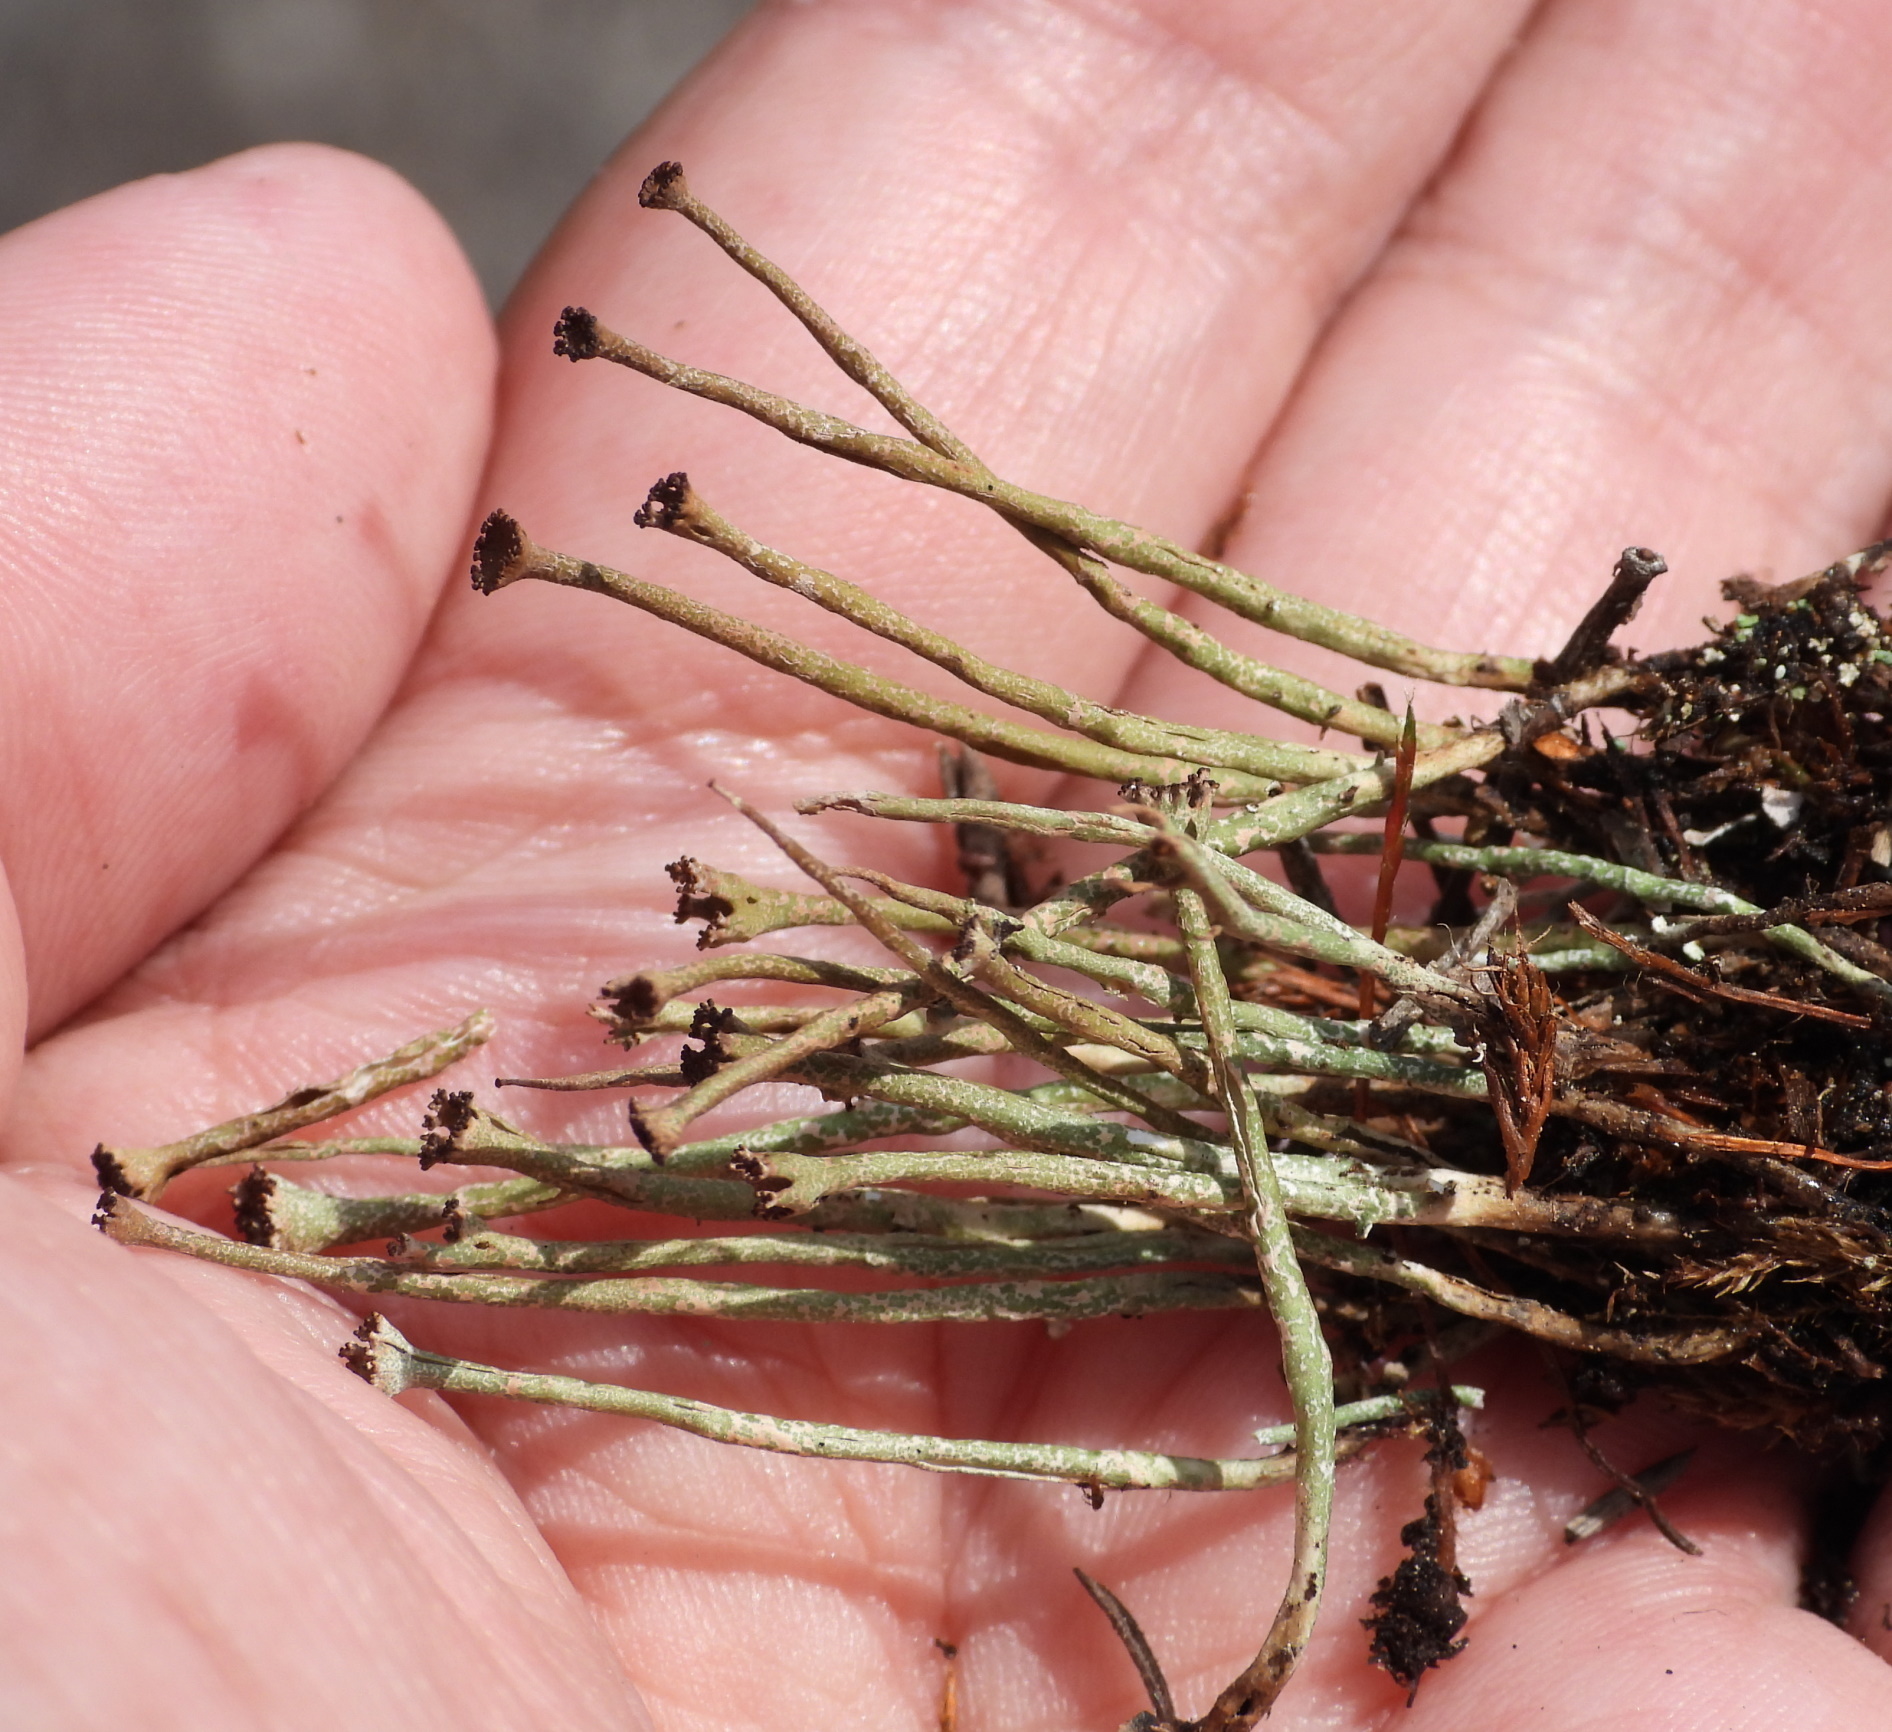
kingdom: Fungi
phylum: Ascomycota
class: Lecanoromycetes
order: Lecanorales
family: Cladoniaceae
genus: Cladonia
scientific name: Cladonia gracilis
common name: Smooth clad lichen
